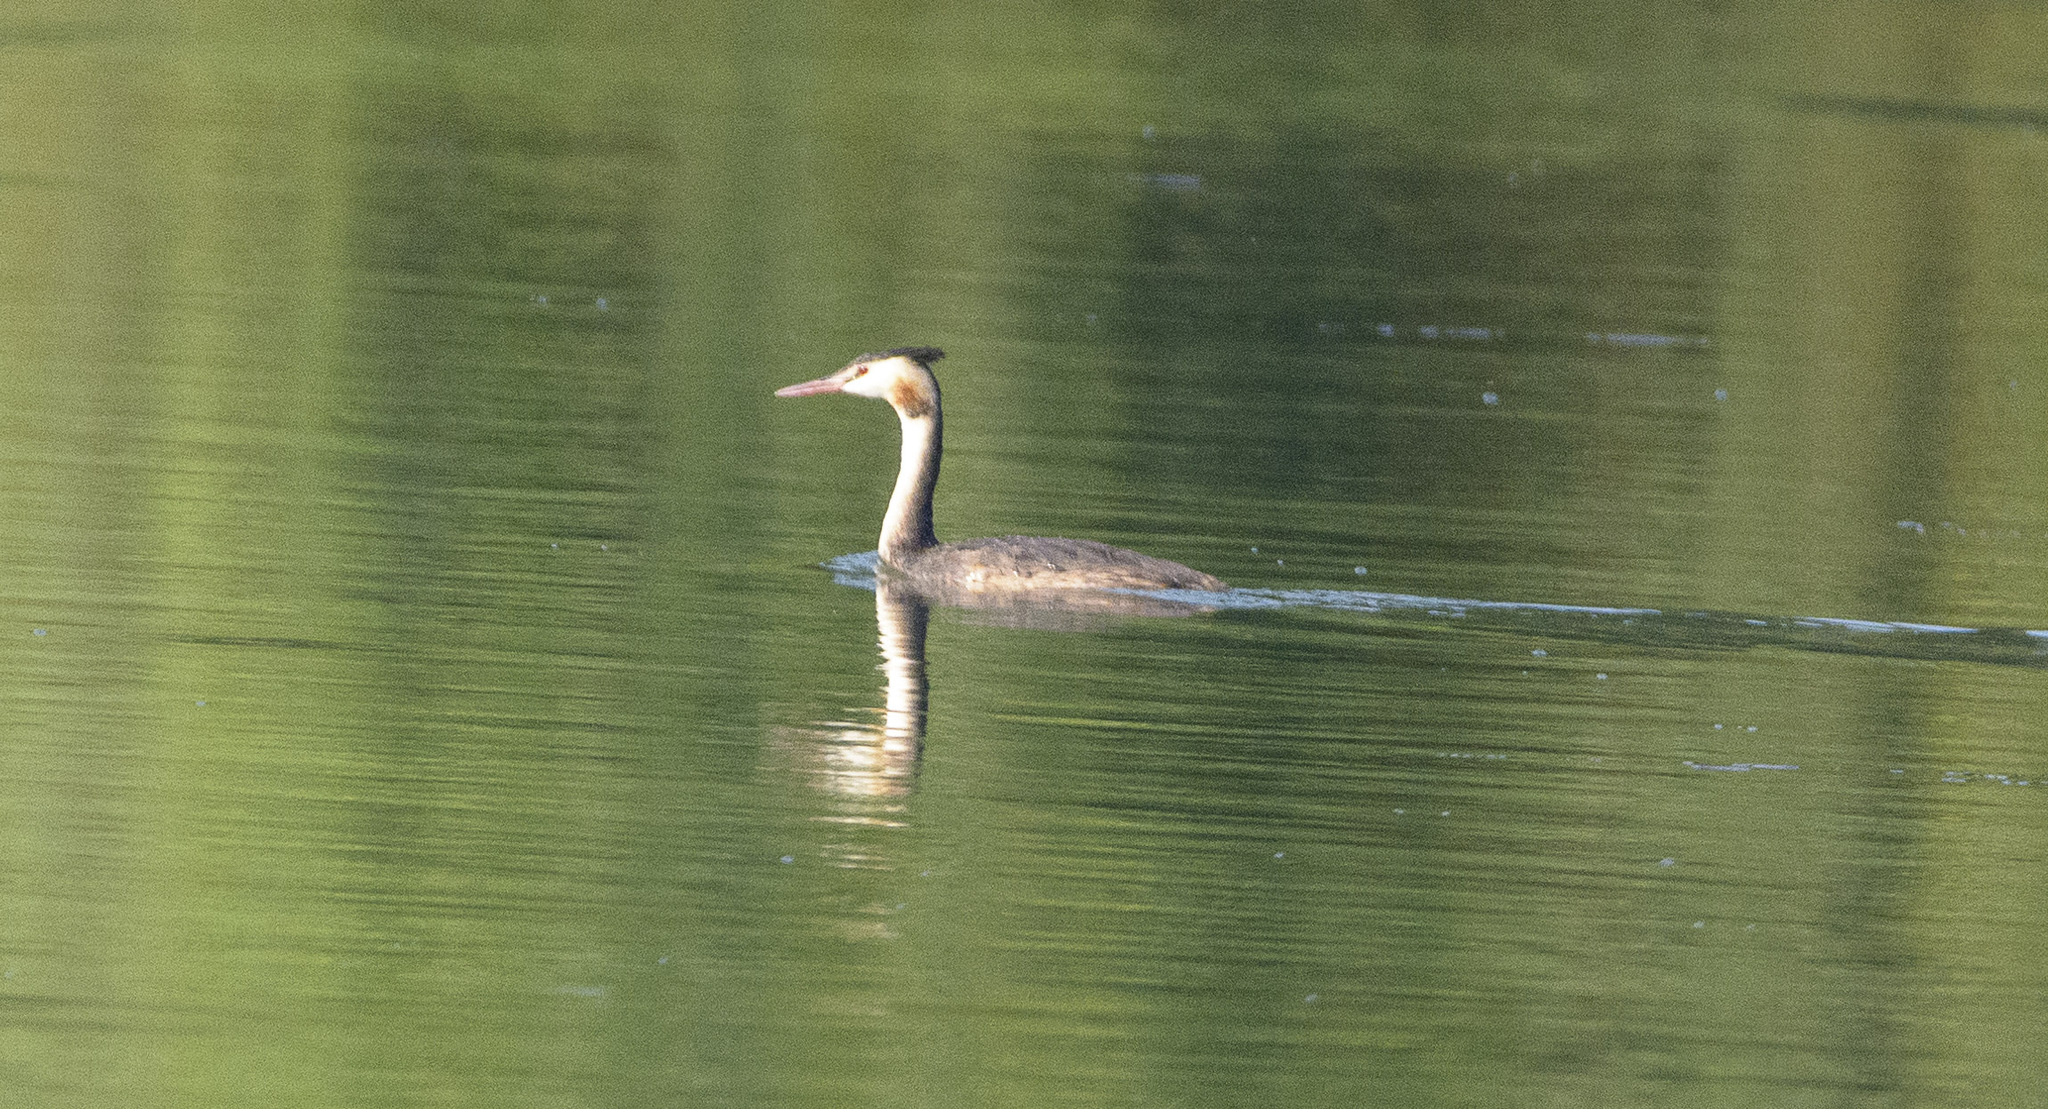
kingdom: Animalia
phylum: Chordata
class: Aves
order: Podicipediformes
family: Podicipedidae
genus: Podiceps
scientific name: Podiceps cristatus
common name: Great crested grebe
